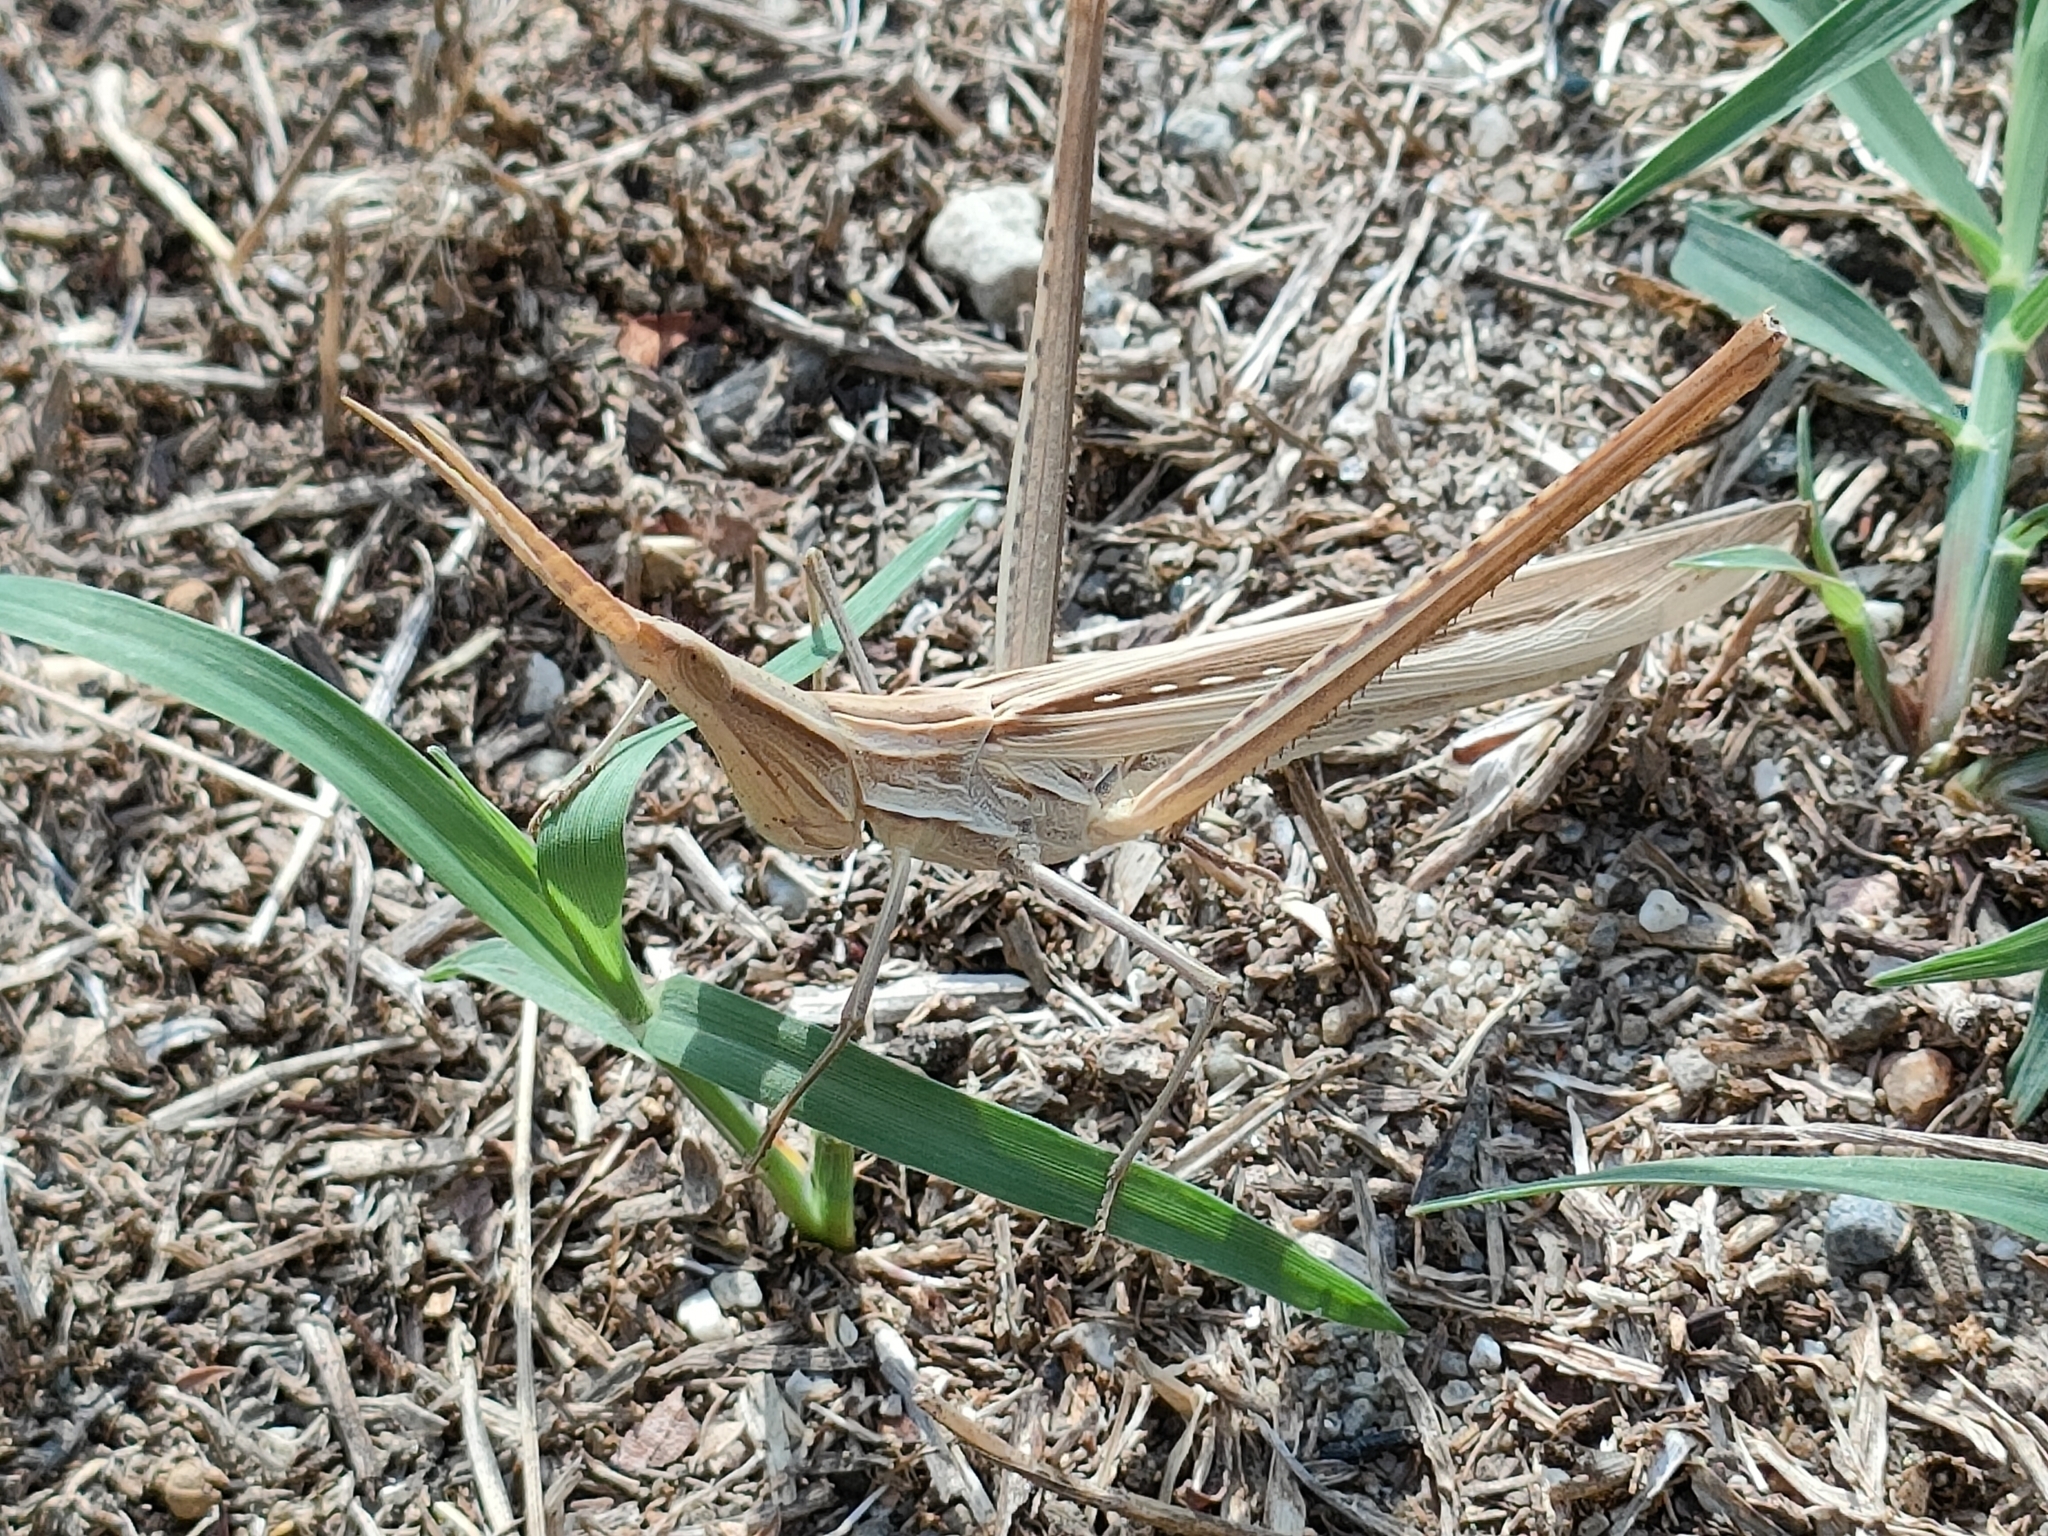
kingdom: Animalia
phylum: Arthropoda
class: Insecta
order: Orthoptera
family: Acrididae
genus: Acrida
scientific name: Acrida ungarica
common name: Common cone-headed grasshopper
